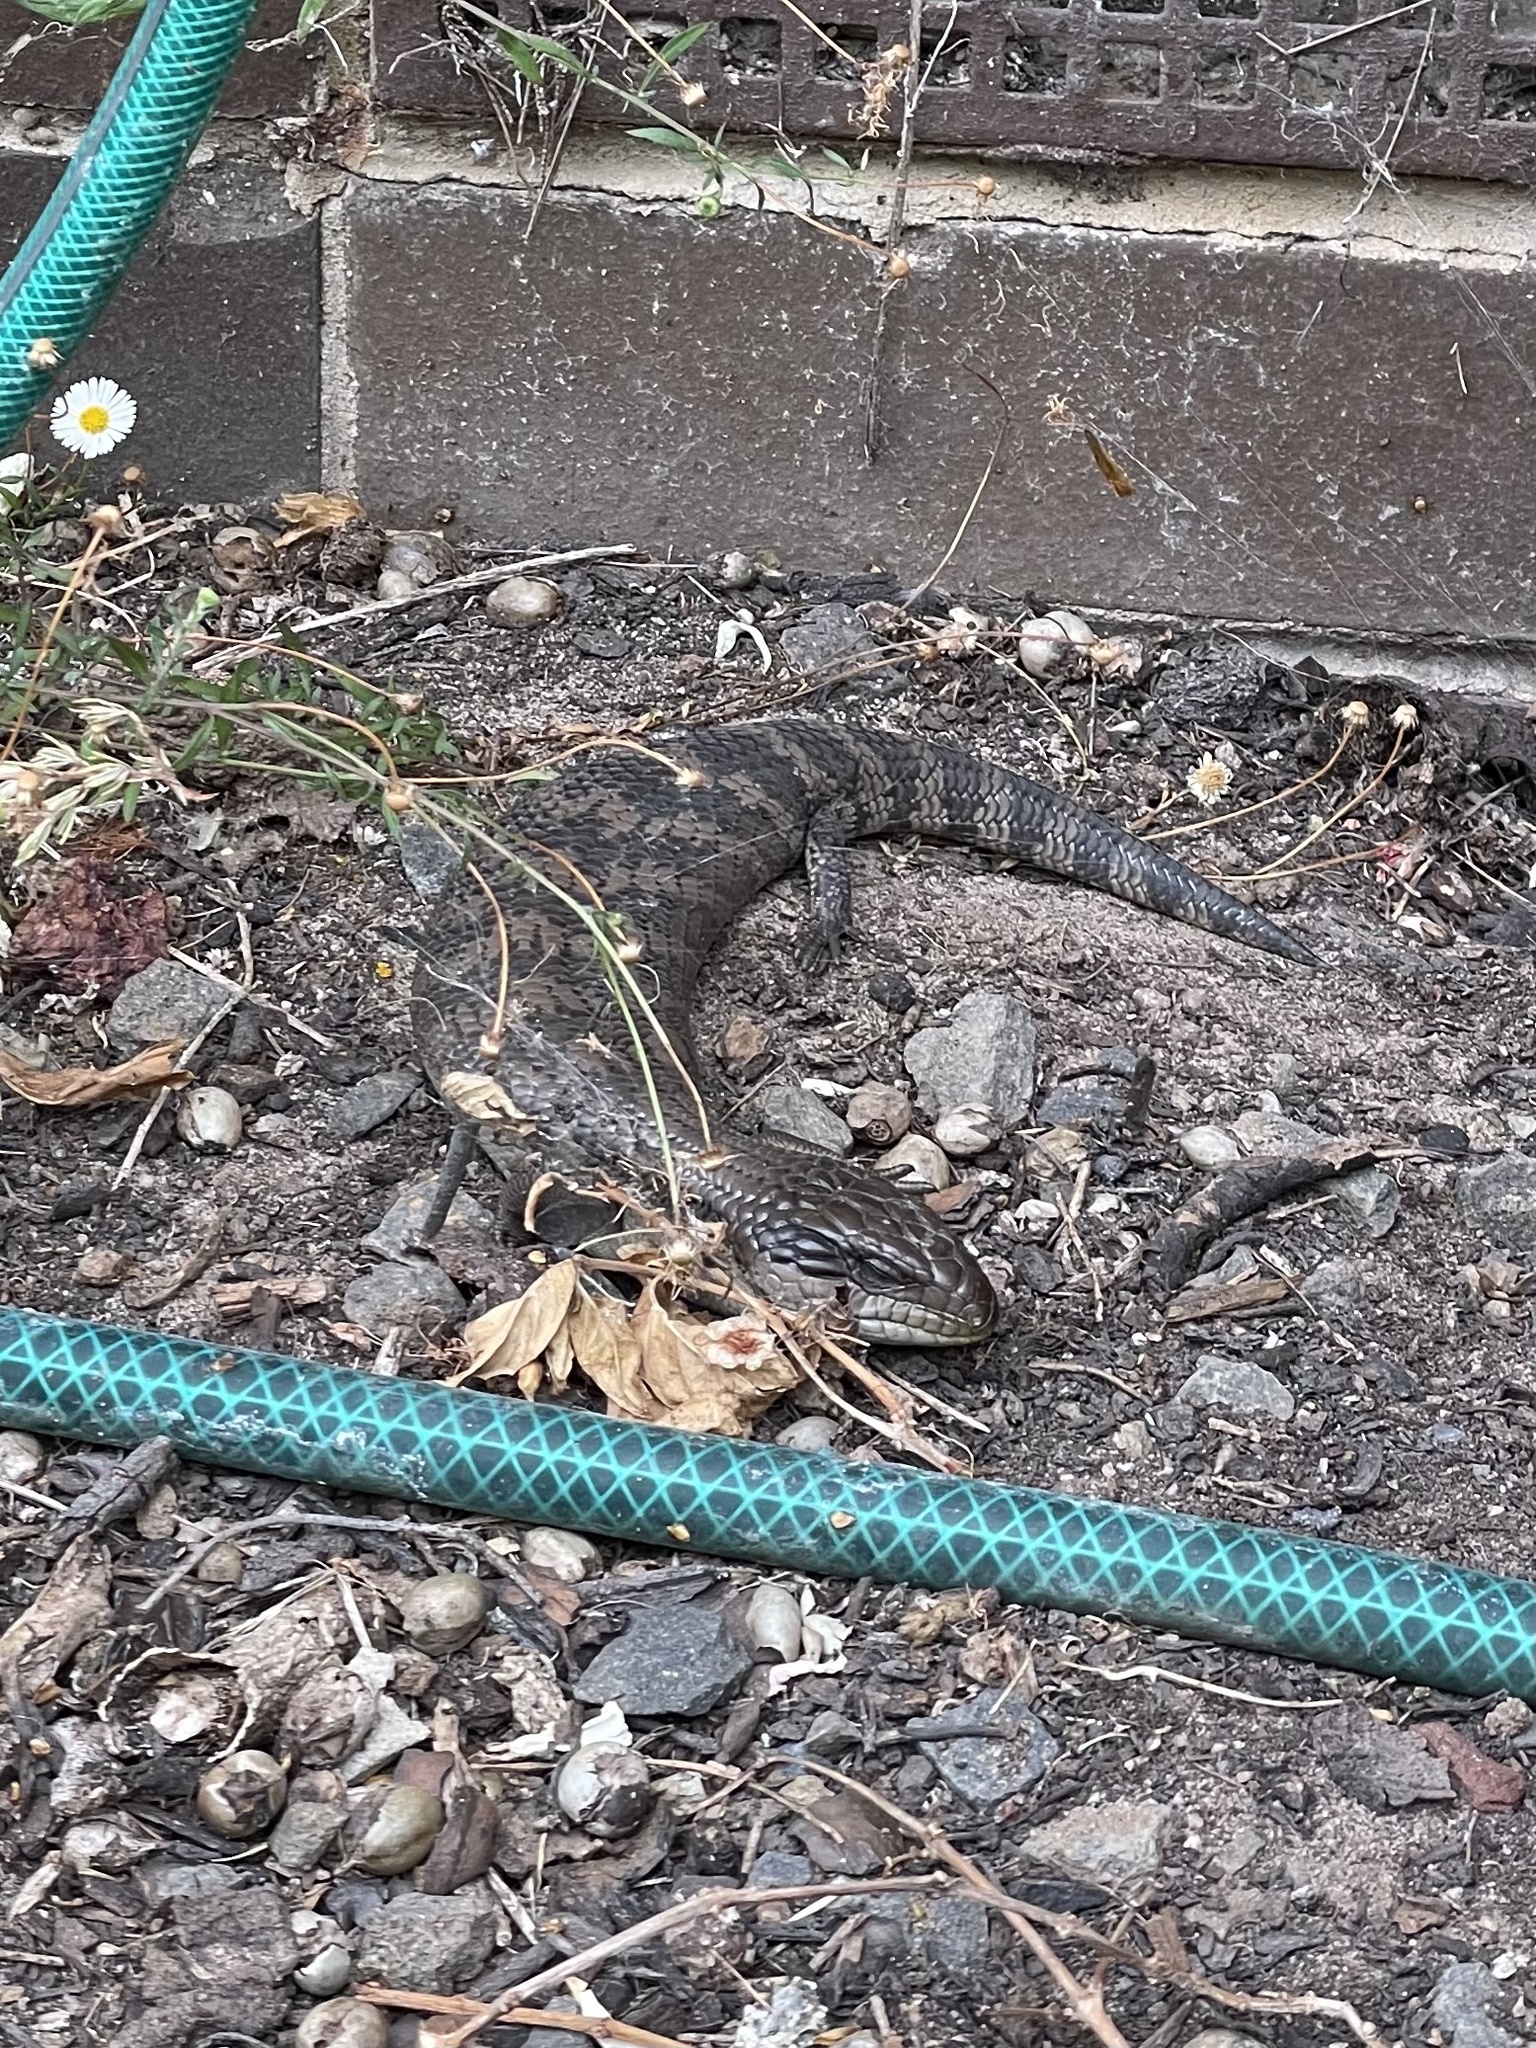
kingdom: Animalia
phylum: Chordata
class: Squamata
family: Scincidae
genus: Tiliqua
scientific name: Tiliqua scincoides
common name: Common bluetongue
